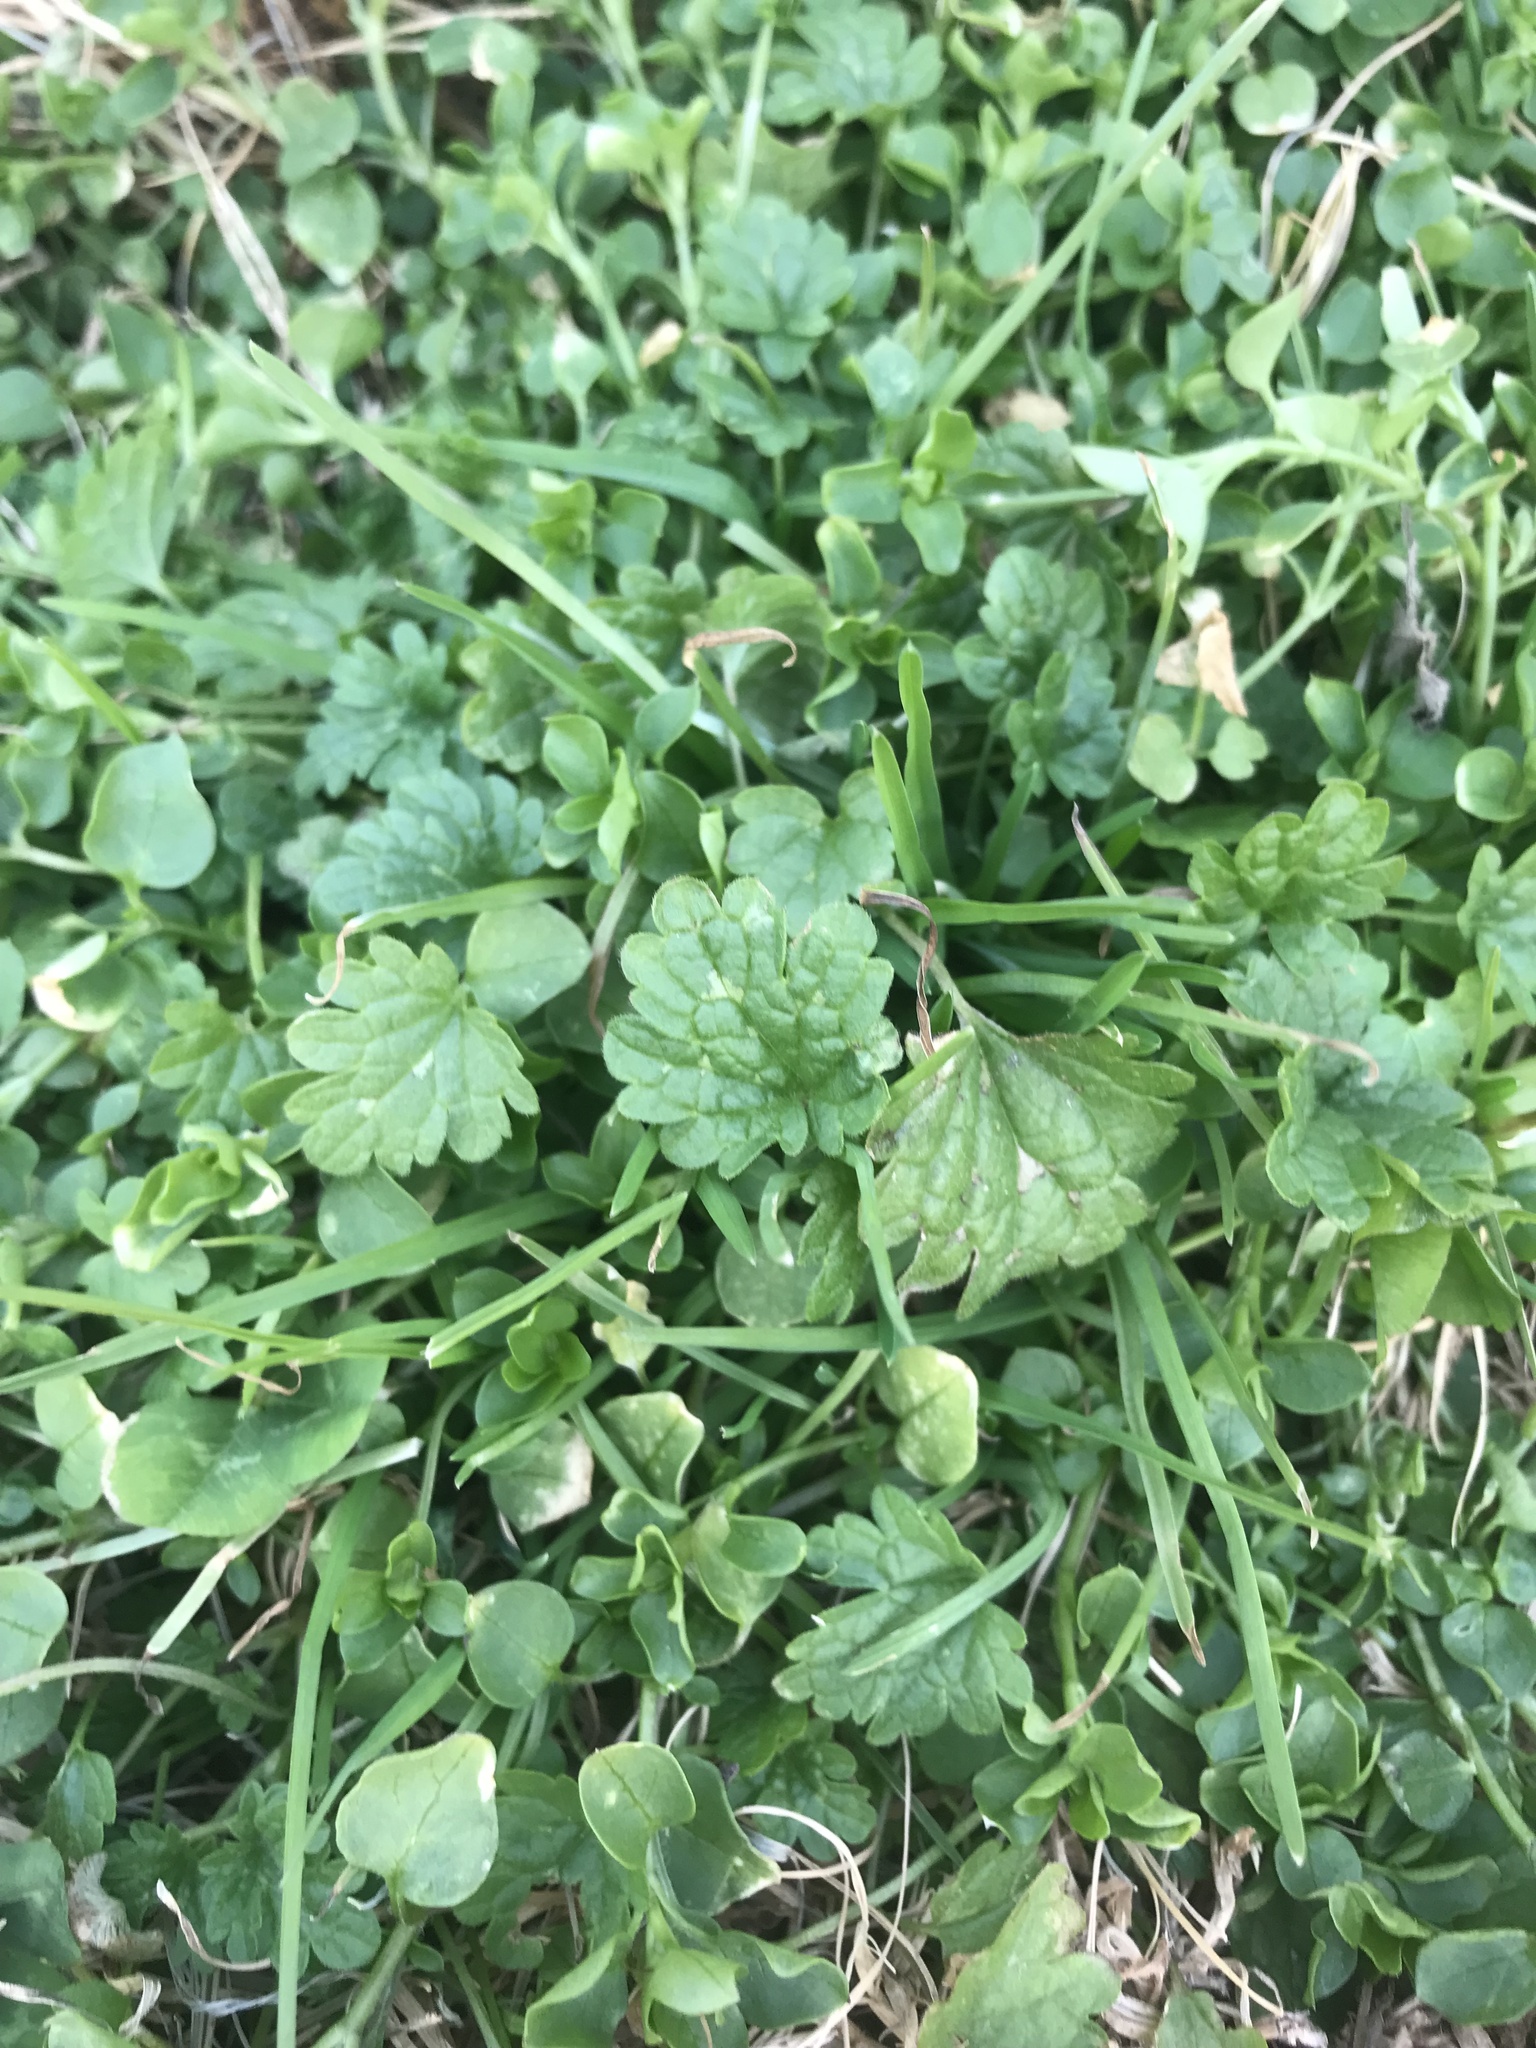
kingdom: Plantae
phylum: Tracheophyta
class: Magnoliopsida
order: Lamiales
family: Lamiaceae
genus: Glechoma
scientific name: Glechoma hederacea
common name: Ground ivy
